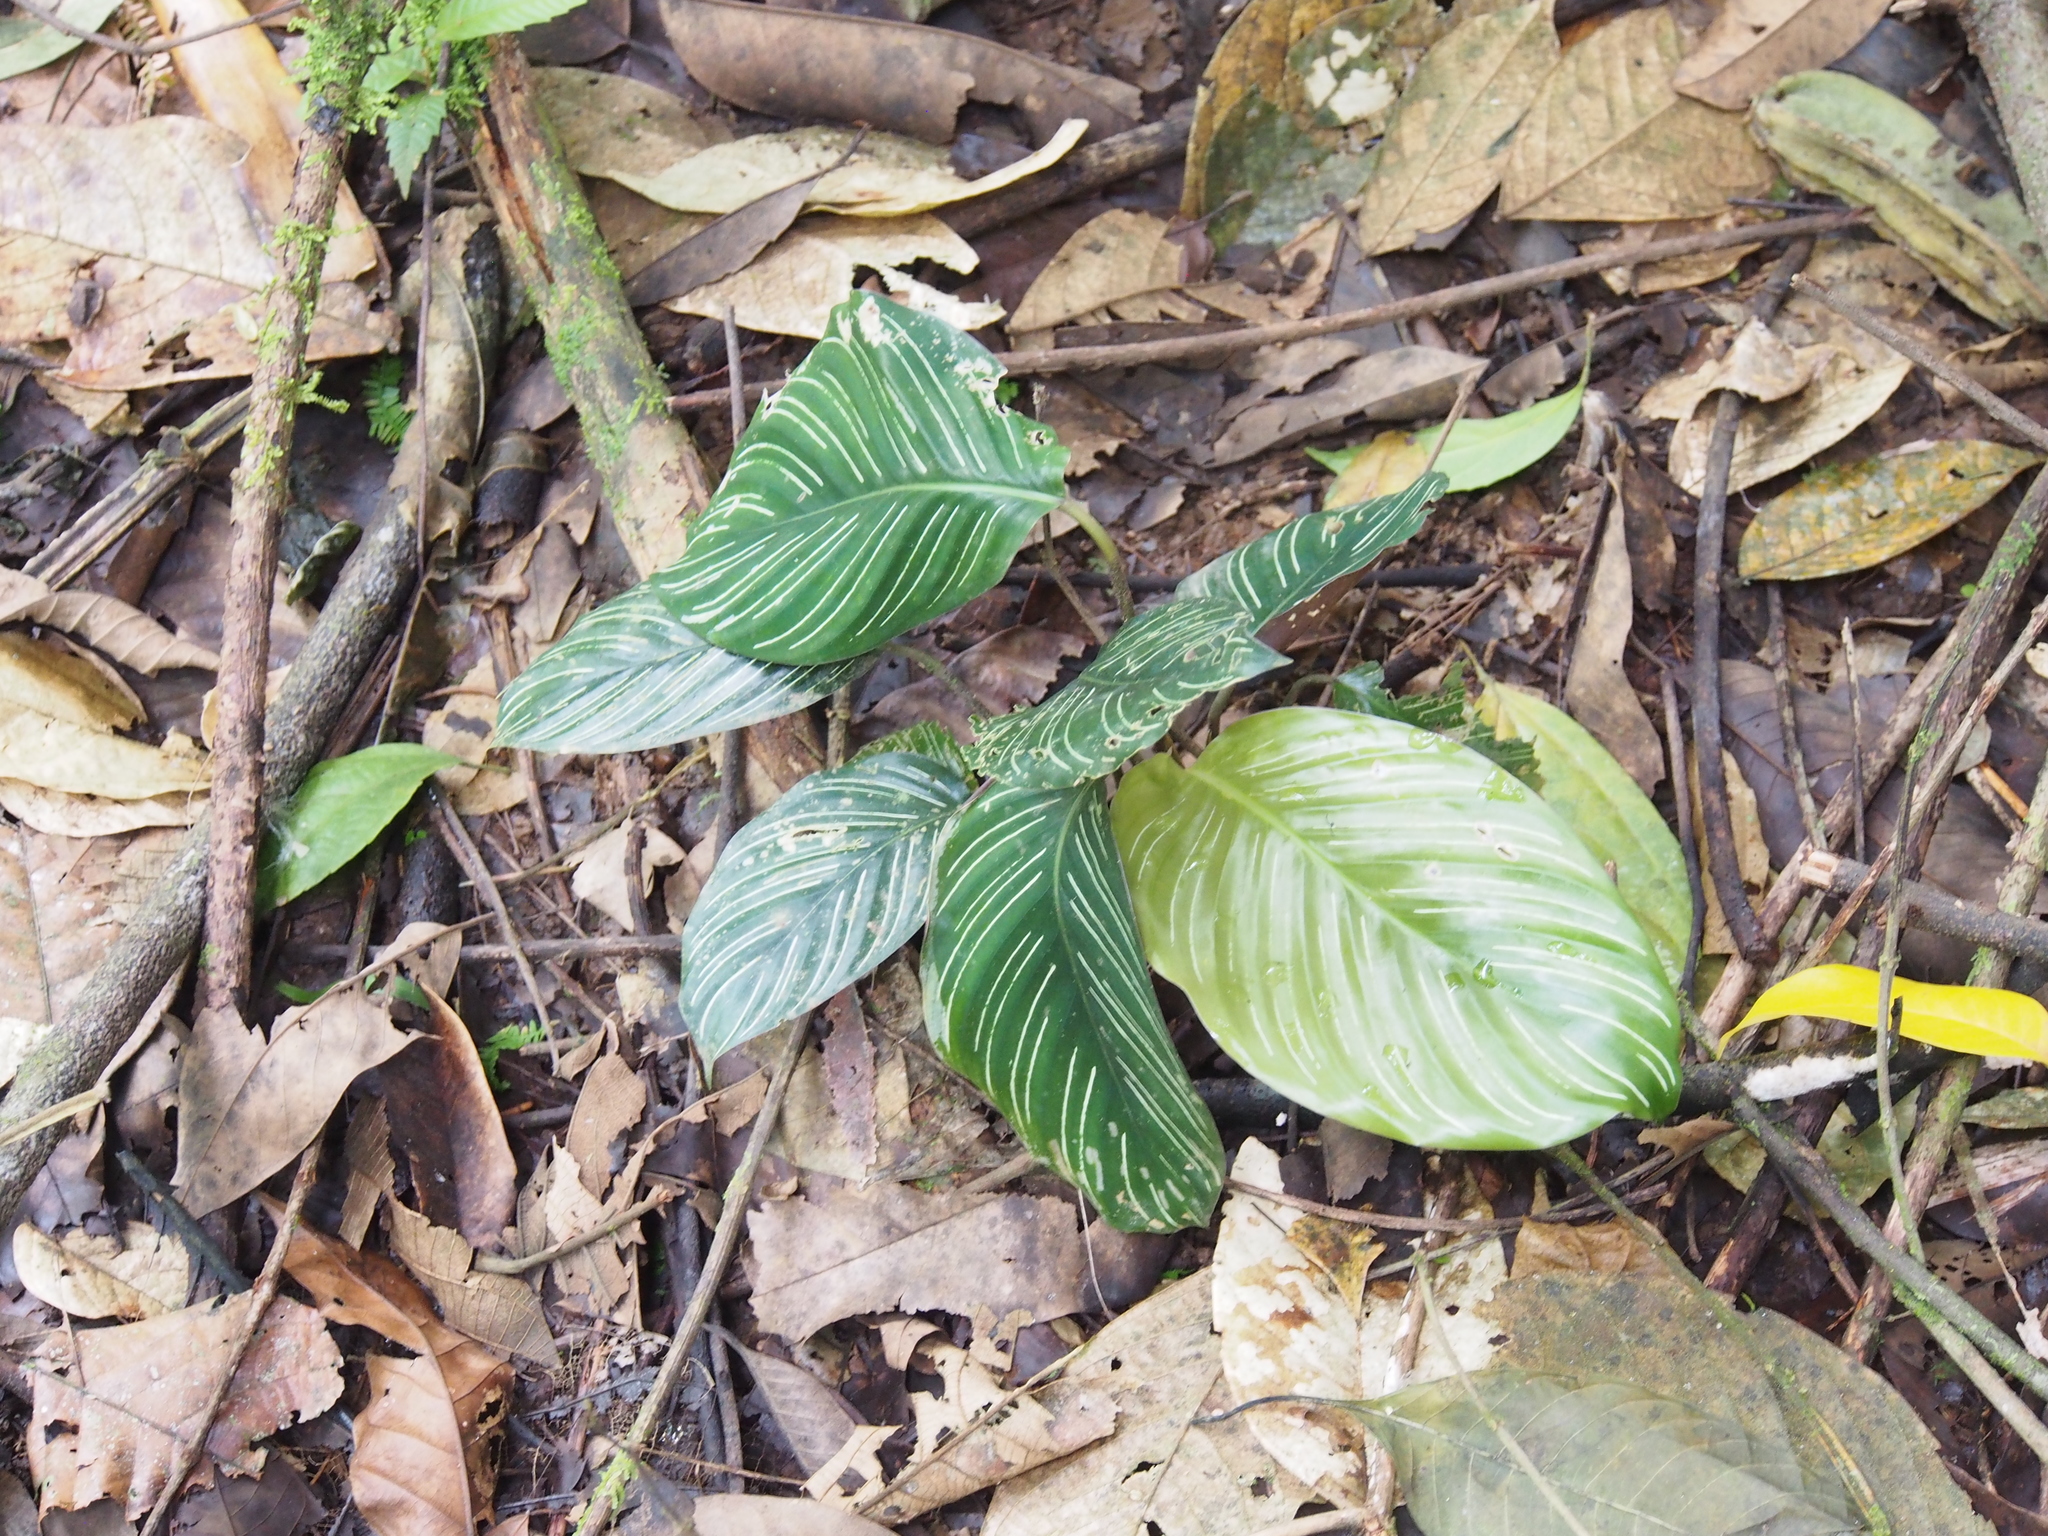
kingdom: Plantae
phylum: Tracheophyta
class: Liliopsida
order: Zingiberales
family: Marantaceae
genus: Goeppertia
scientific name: Goeppertia sanderiana
